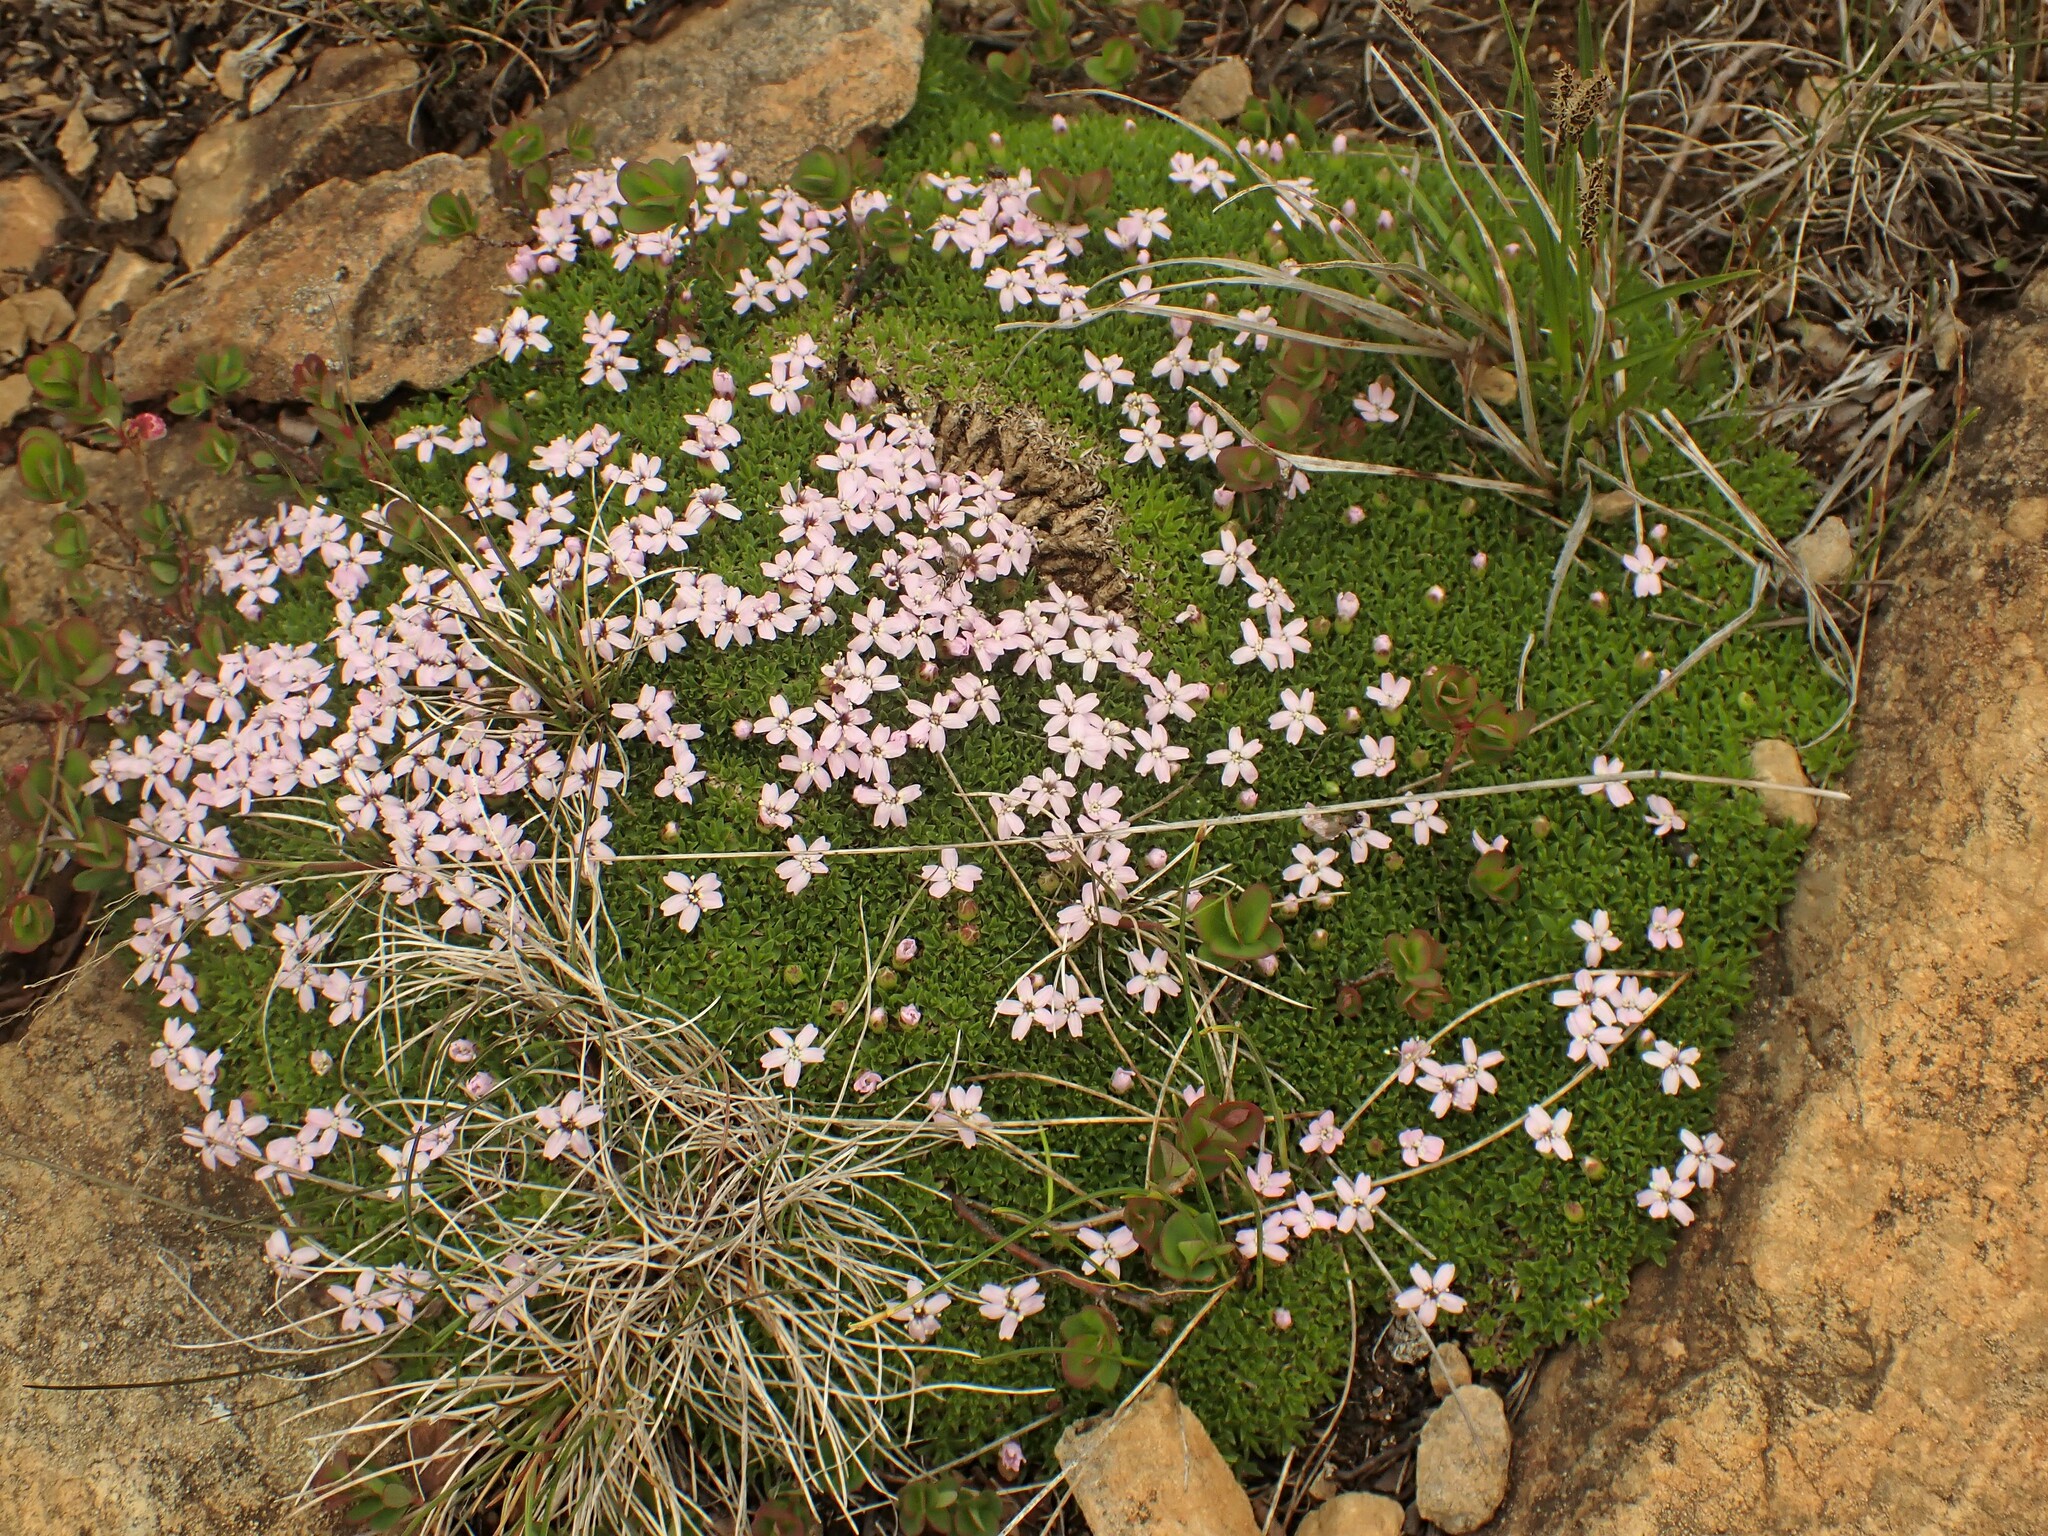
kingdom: Plantae
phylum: Tracheophyta
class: Magnoliopsida
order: Caryophyllales
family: Caryophyllaceae
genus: Silene
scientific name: Silene acaulis
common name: Moss campion
